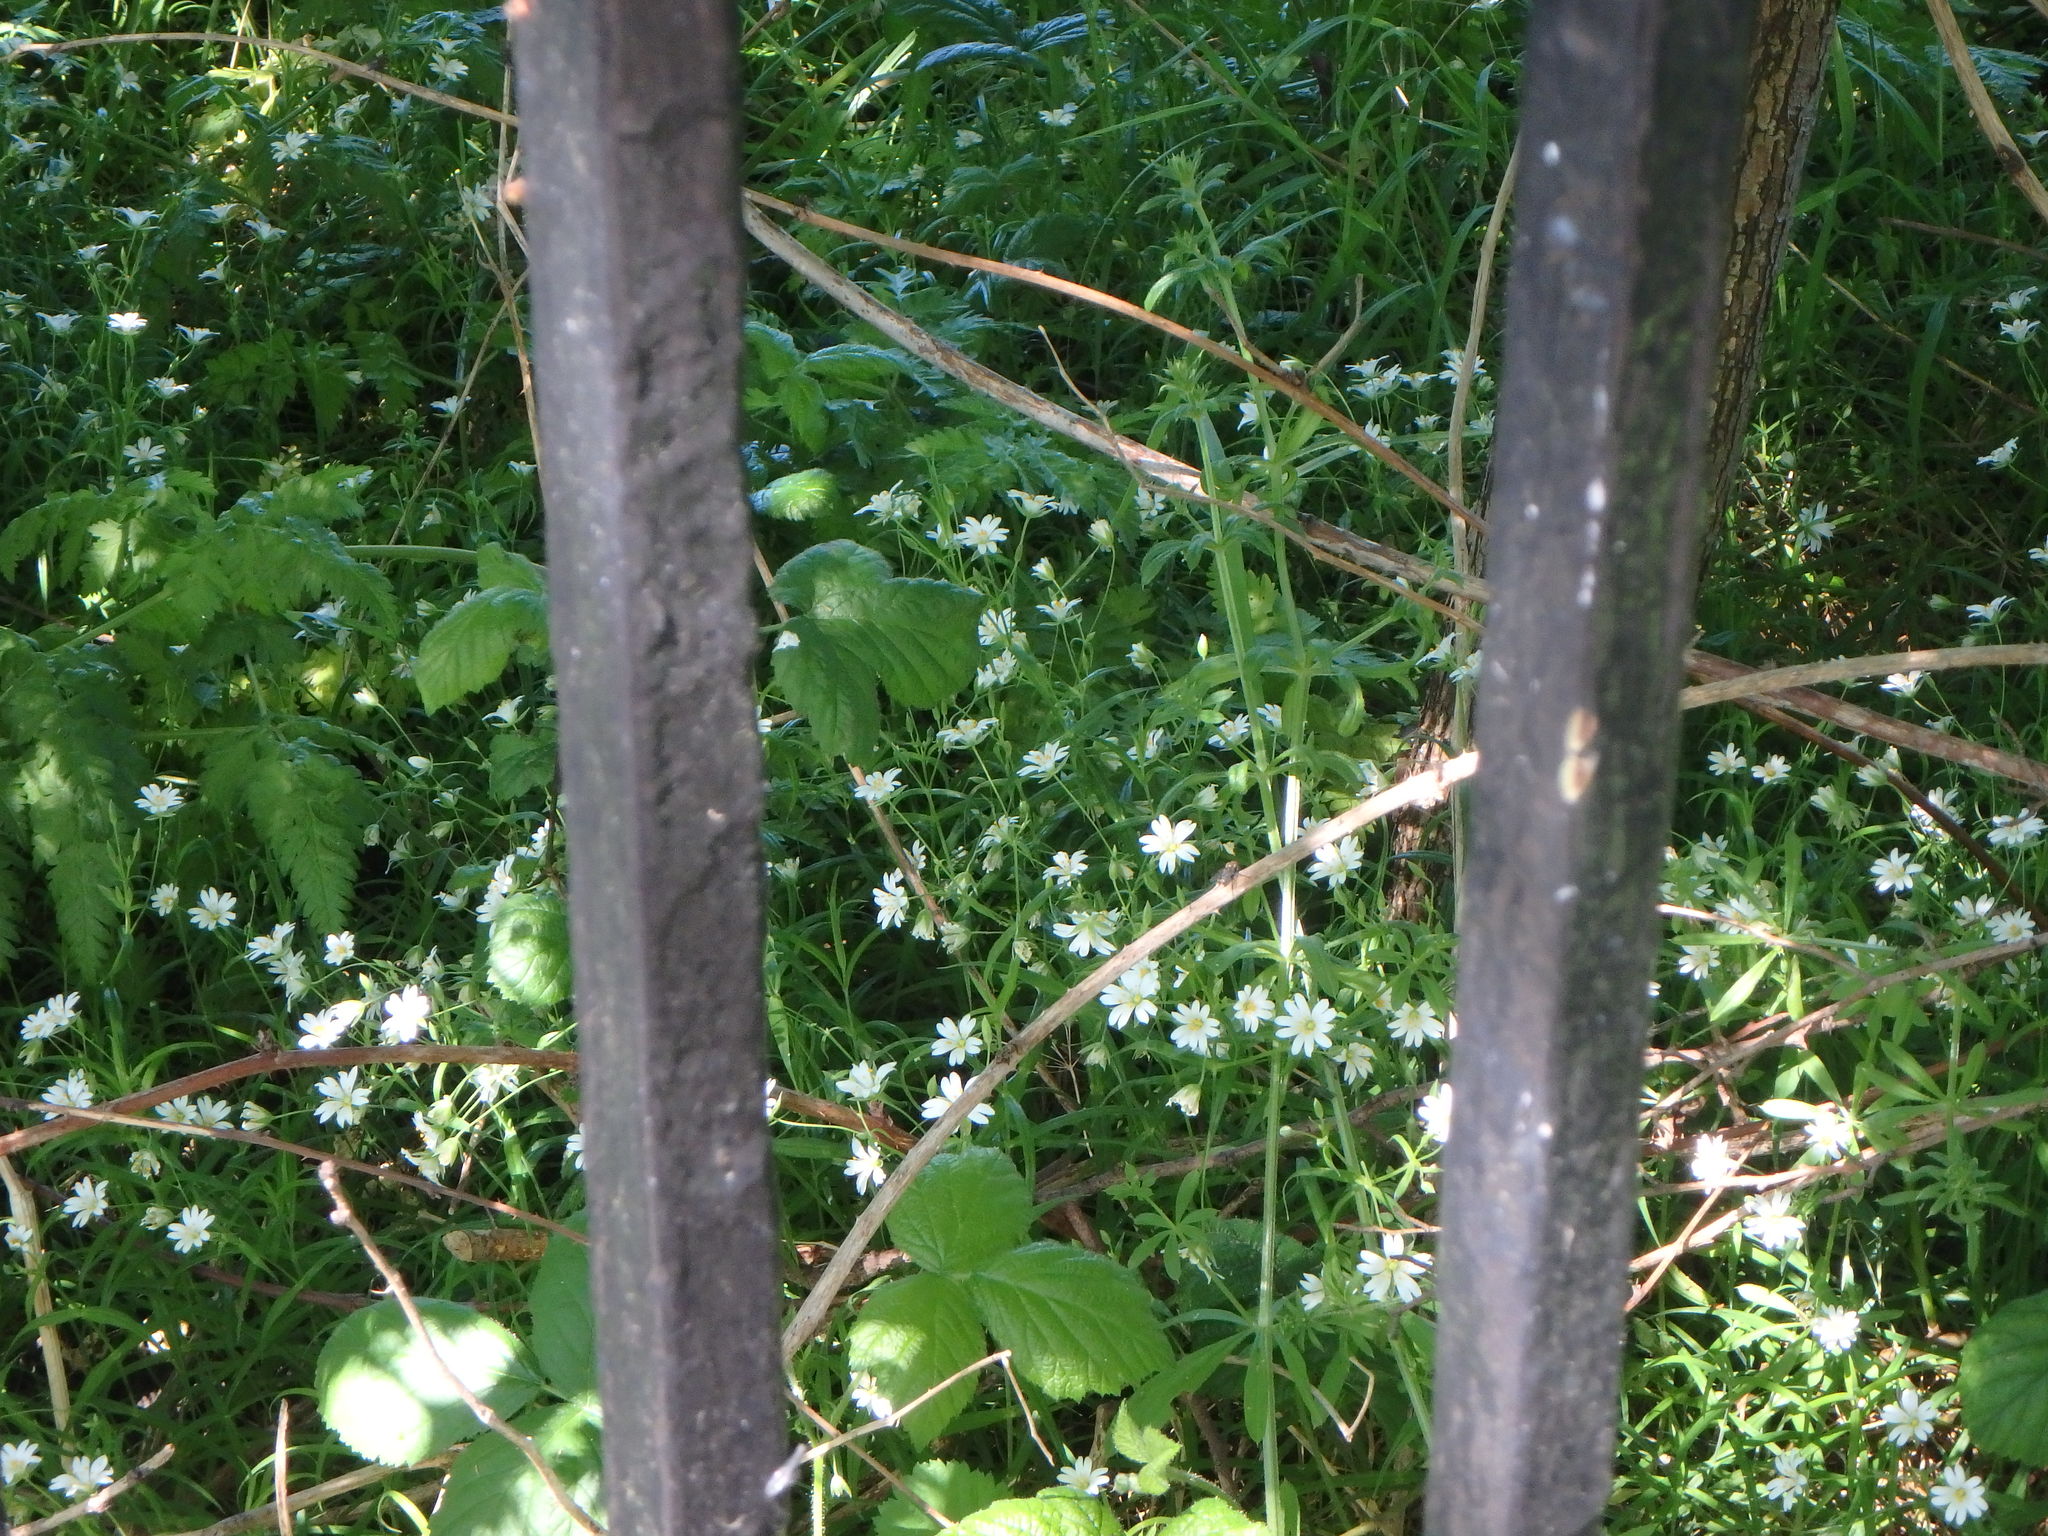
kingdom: Plantae
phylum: Tracheophyta
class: Magnoliopsida
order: Caryophyllales
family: Caryophyllaceae
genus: Rabelera
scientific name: Rabelera holostea
